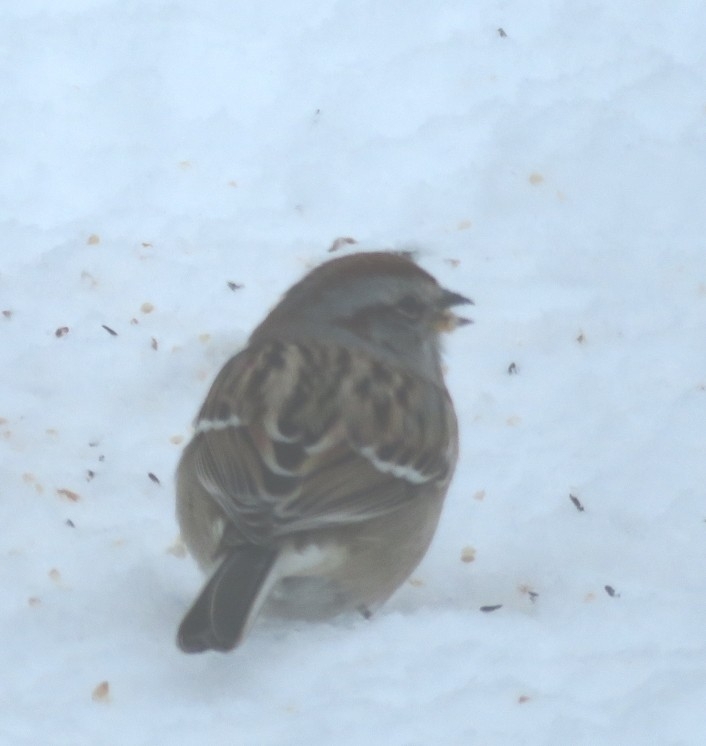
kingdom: Animalia
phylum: Chordata
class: Aves
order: Passeriformes
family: Passerellidae
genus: Spizelloides
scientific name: Spizelloides arborea
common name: American tree sparrow
